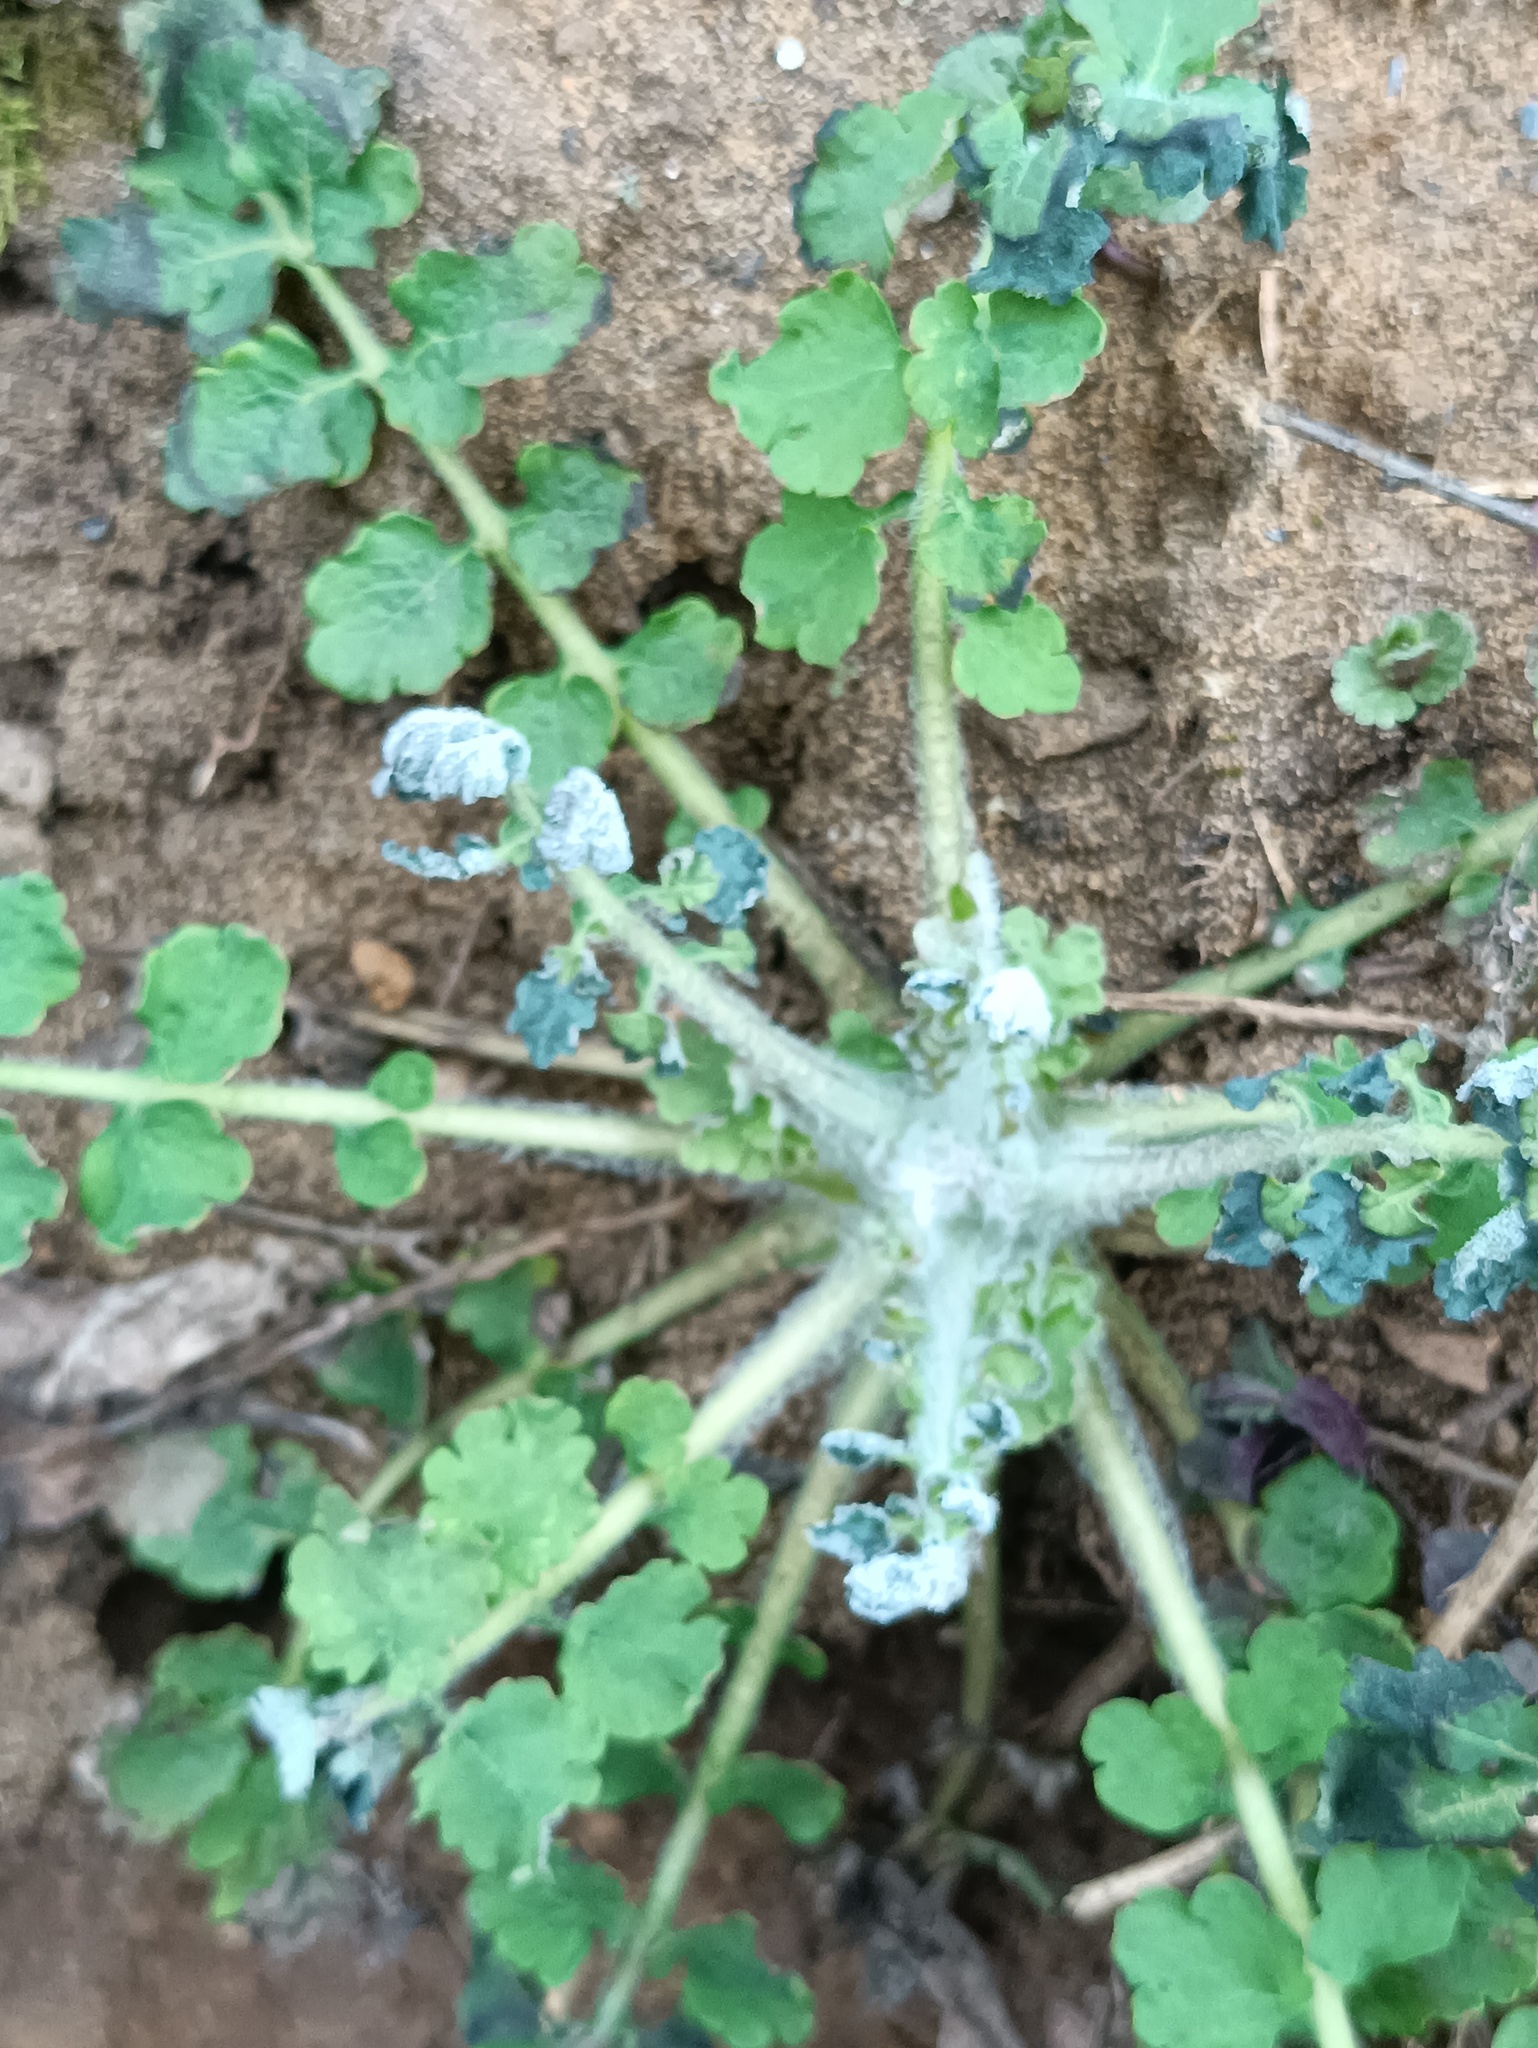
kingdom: Plantae
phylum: Tracheophyta
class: Magnoliopsida
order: Ranunculales
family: Papaveraceae
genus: Chelidonium
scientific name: Chelidonium majus
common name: Greater celandine
